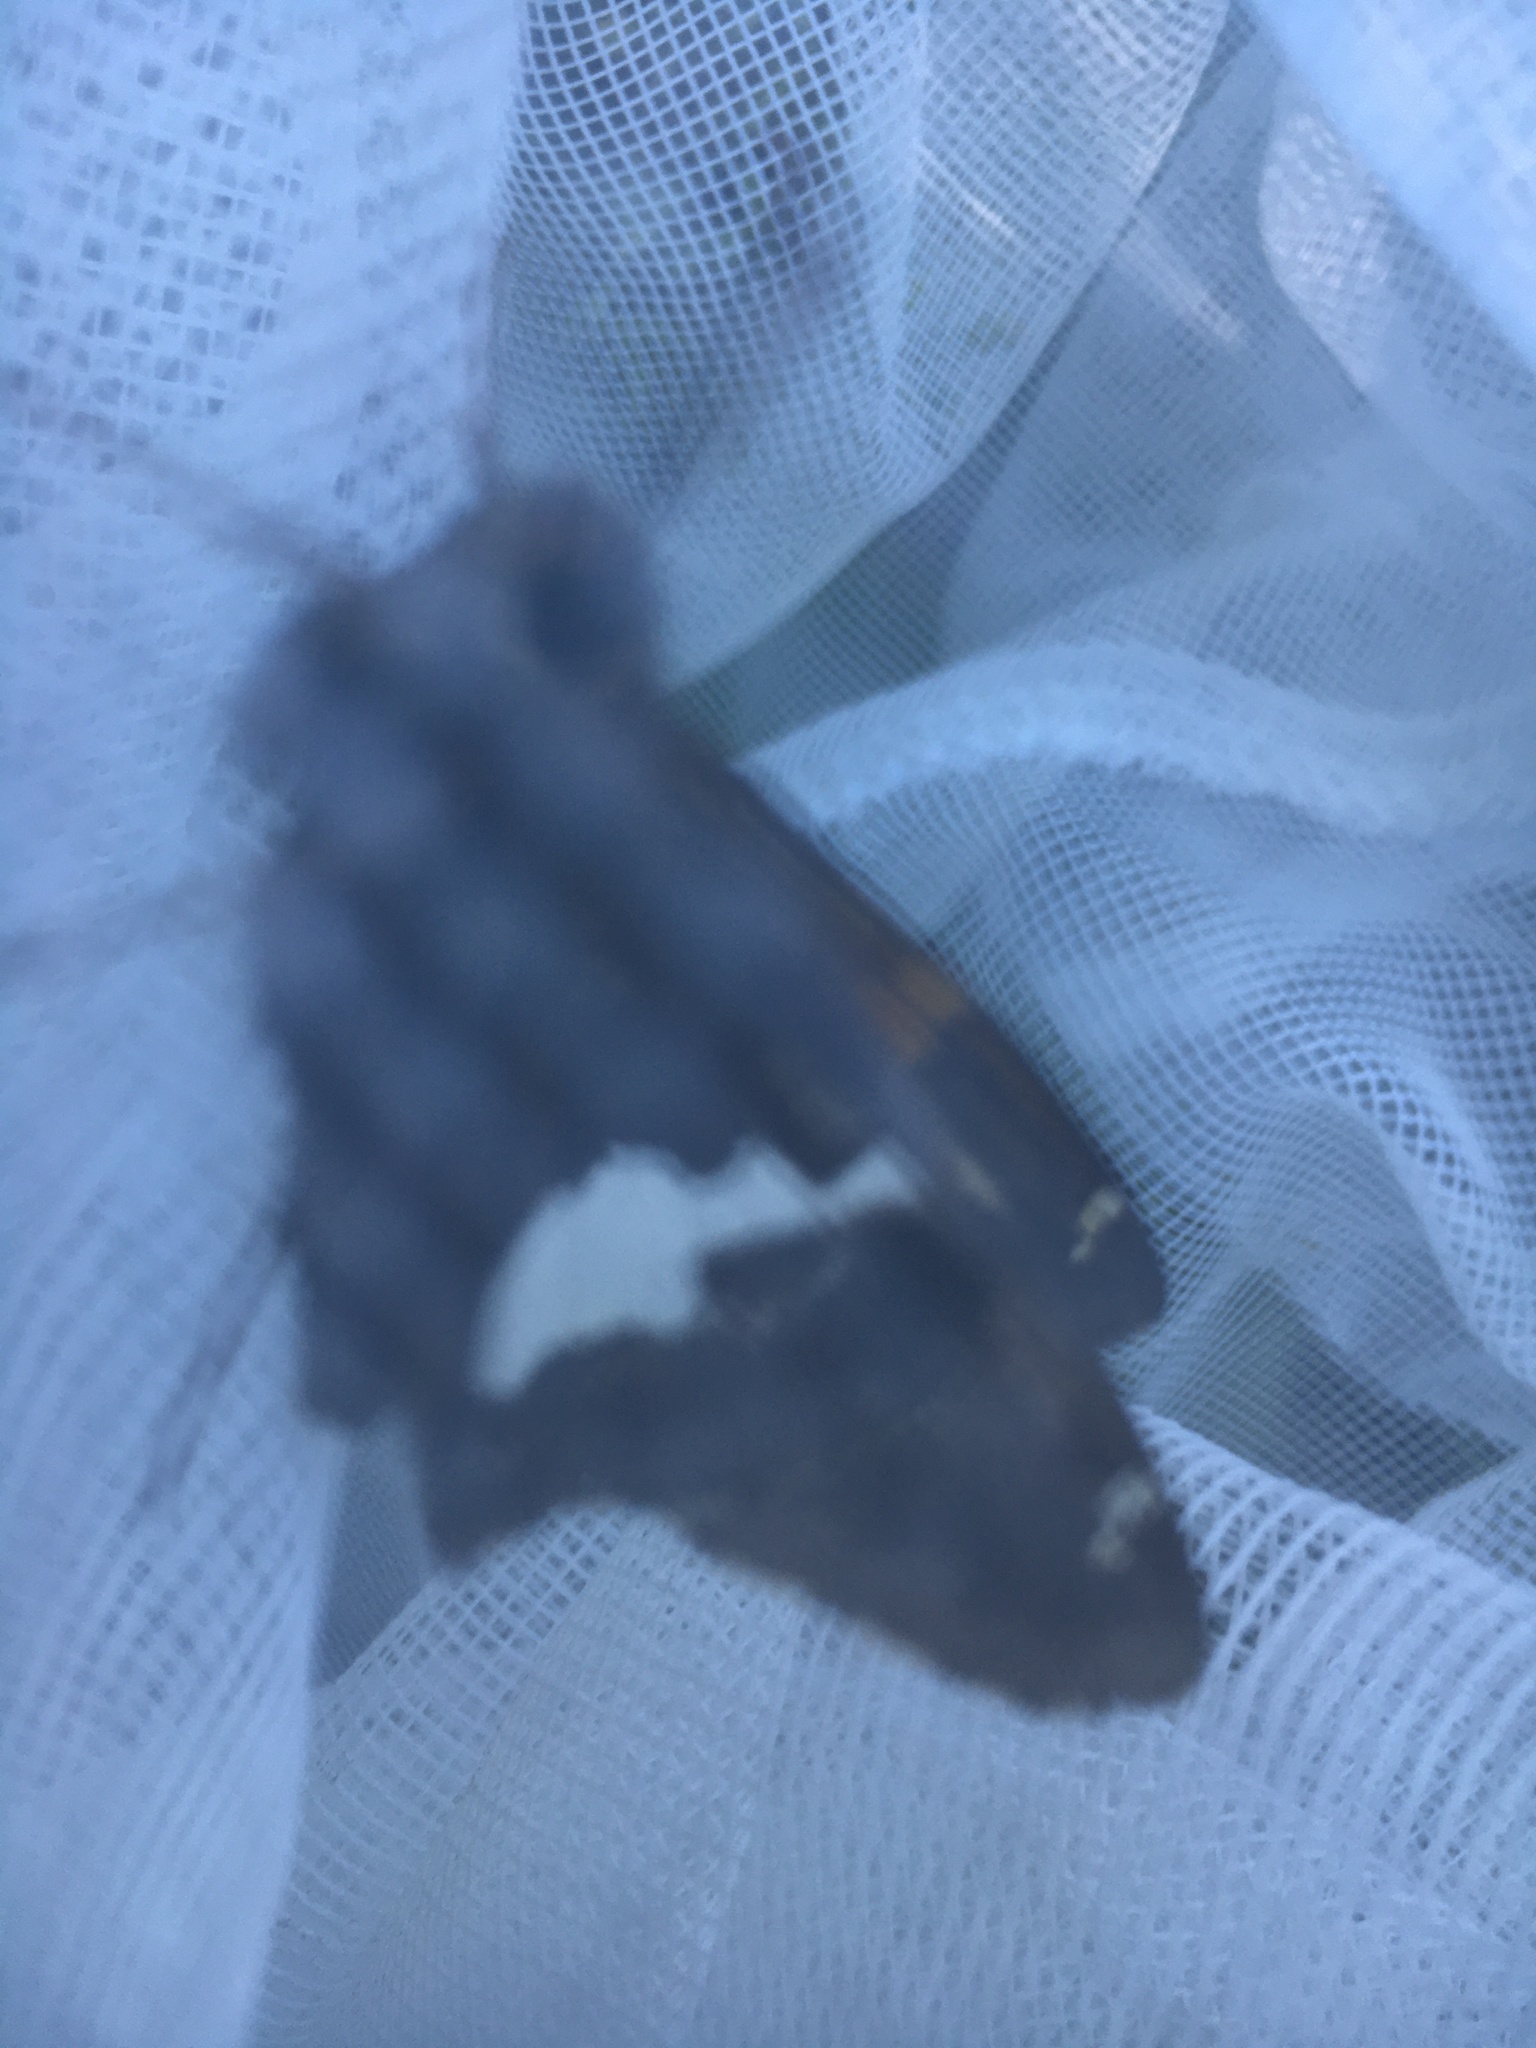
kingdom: Animalia
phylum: Arthropoda
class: Insecta
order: Lepidoptera
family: Hesperiidae
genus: Epargyreus
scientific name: Epargyreus clarus
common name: Silver-spotted skipper
